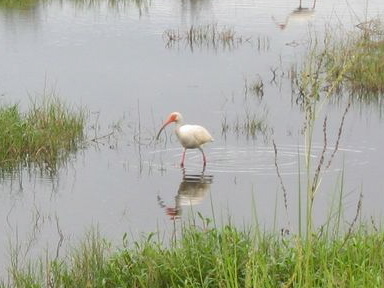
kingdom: Animalia
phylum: Chordata
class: Aves
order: Pelecaniformes
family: Threskiornithidae
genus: Eudocimus
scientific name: Eudocimus albus
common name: White ibis
